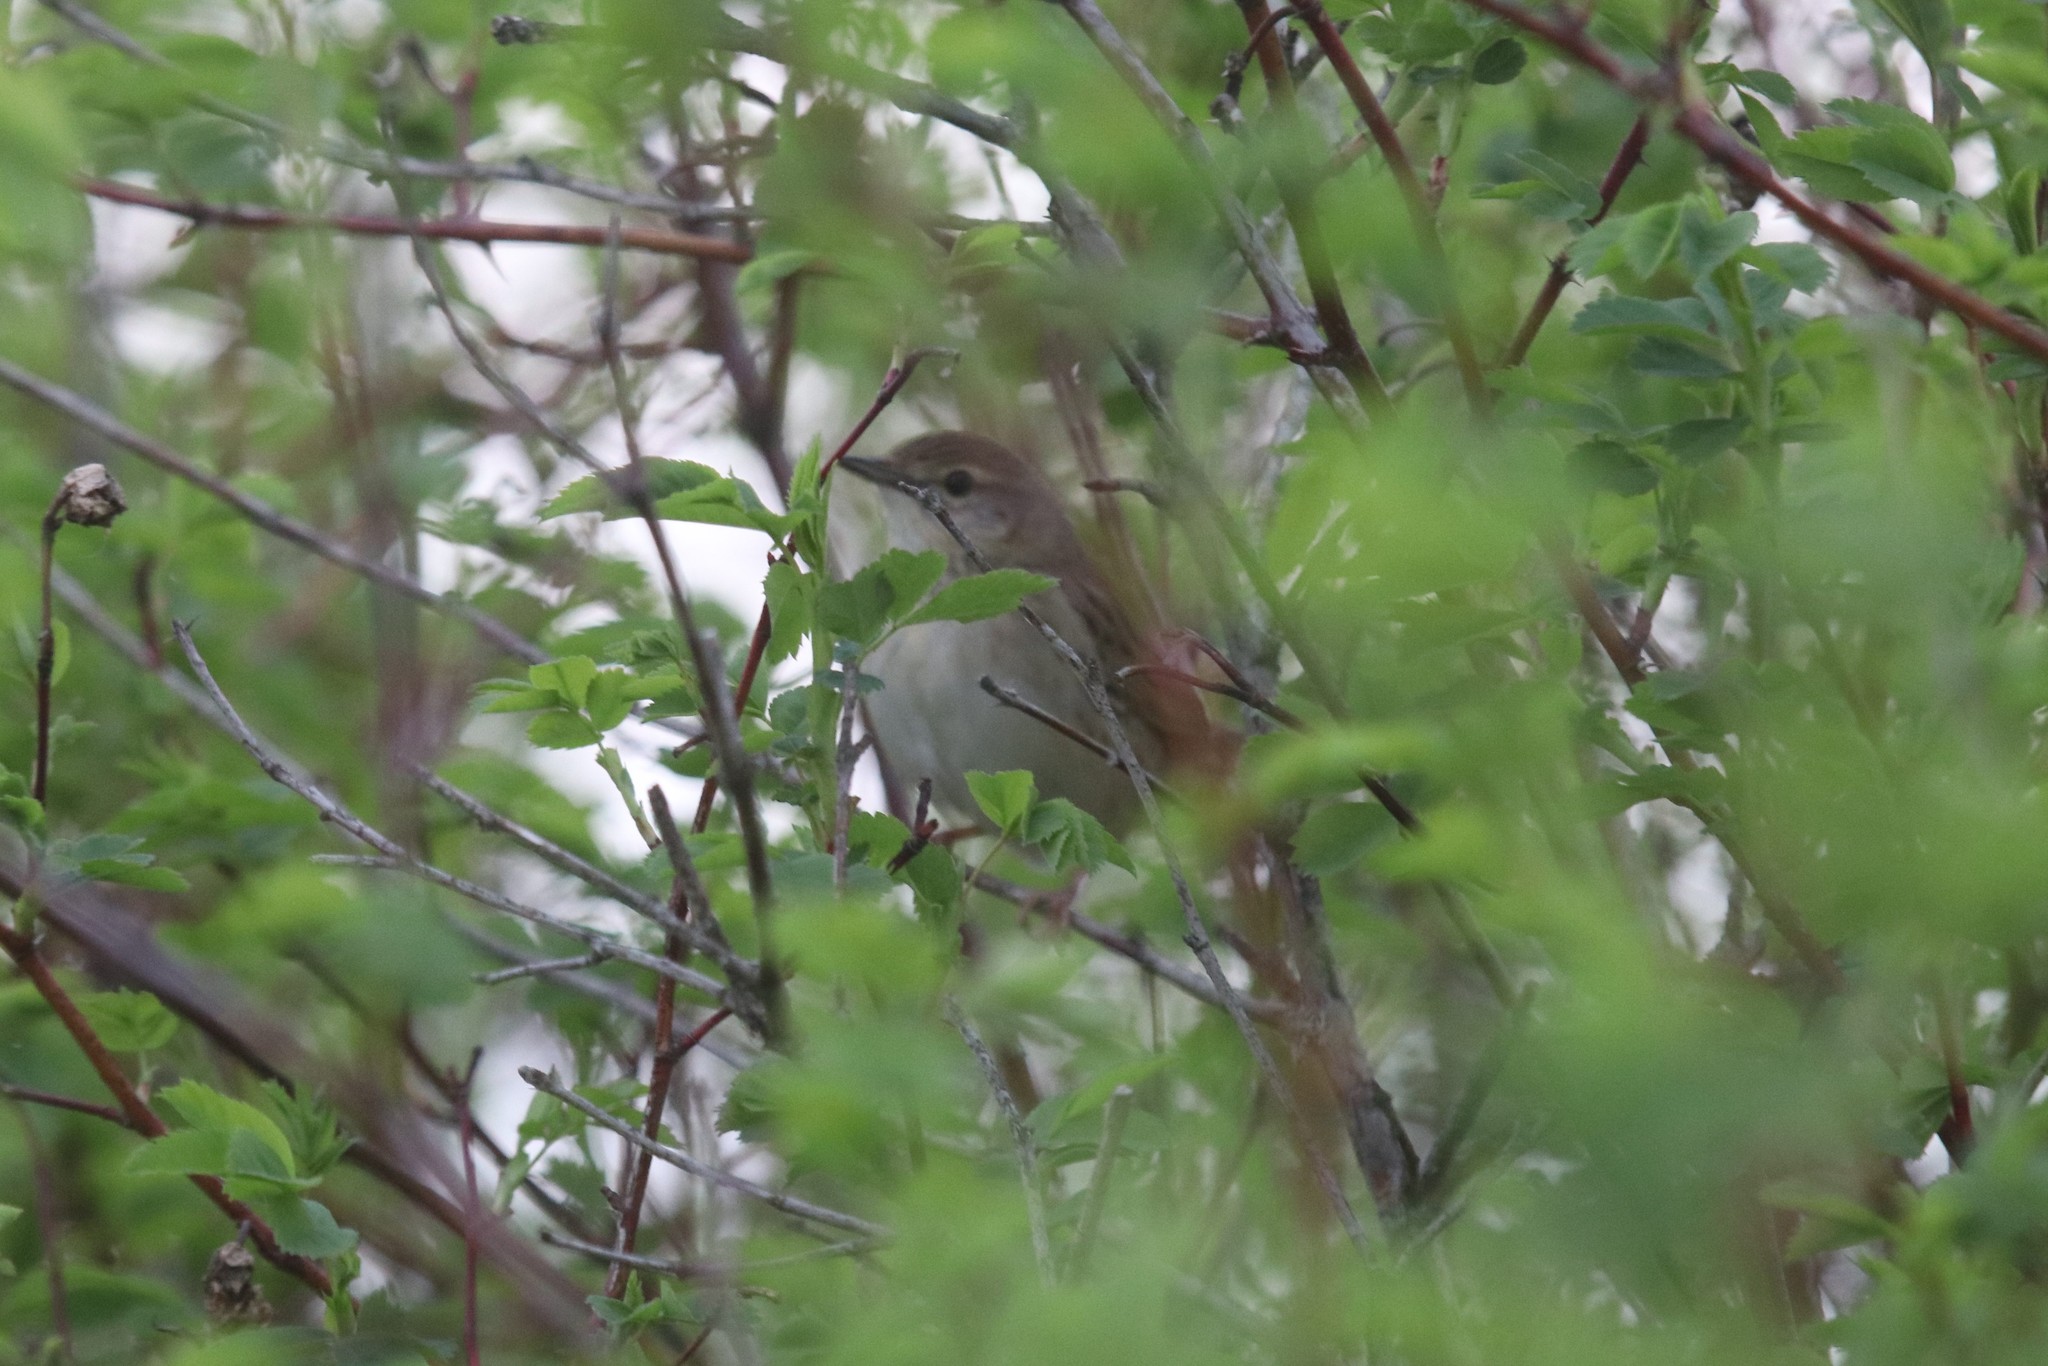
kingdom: Animalia
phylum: Chordata
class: Aves
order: Passeriformes
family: Locustellidae
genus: Locustella
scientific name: Locustella naevia
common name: Common grasshopper warbler
